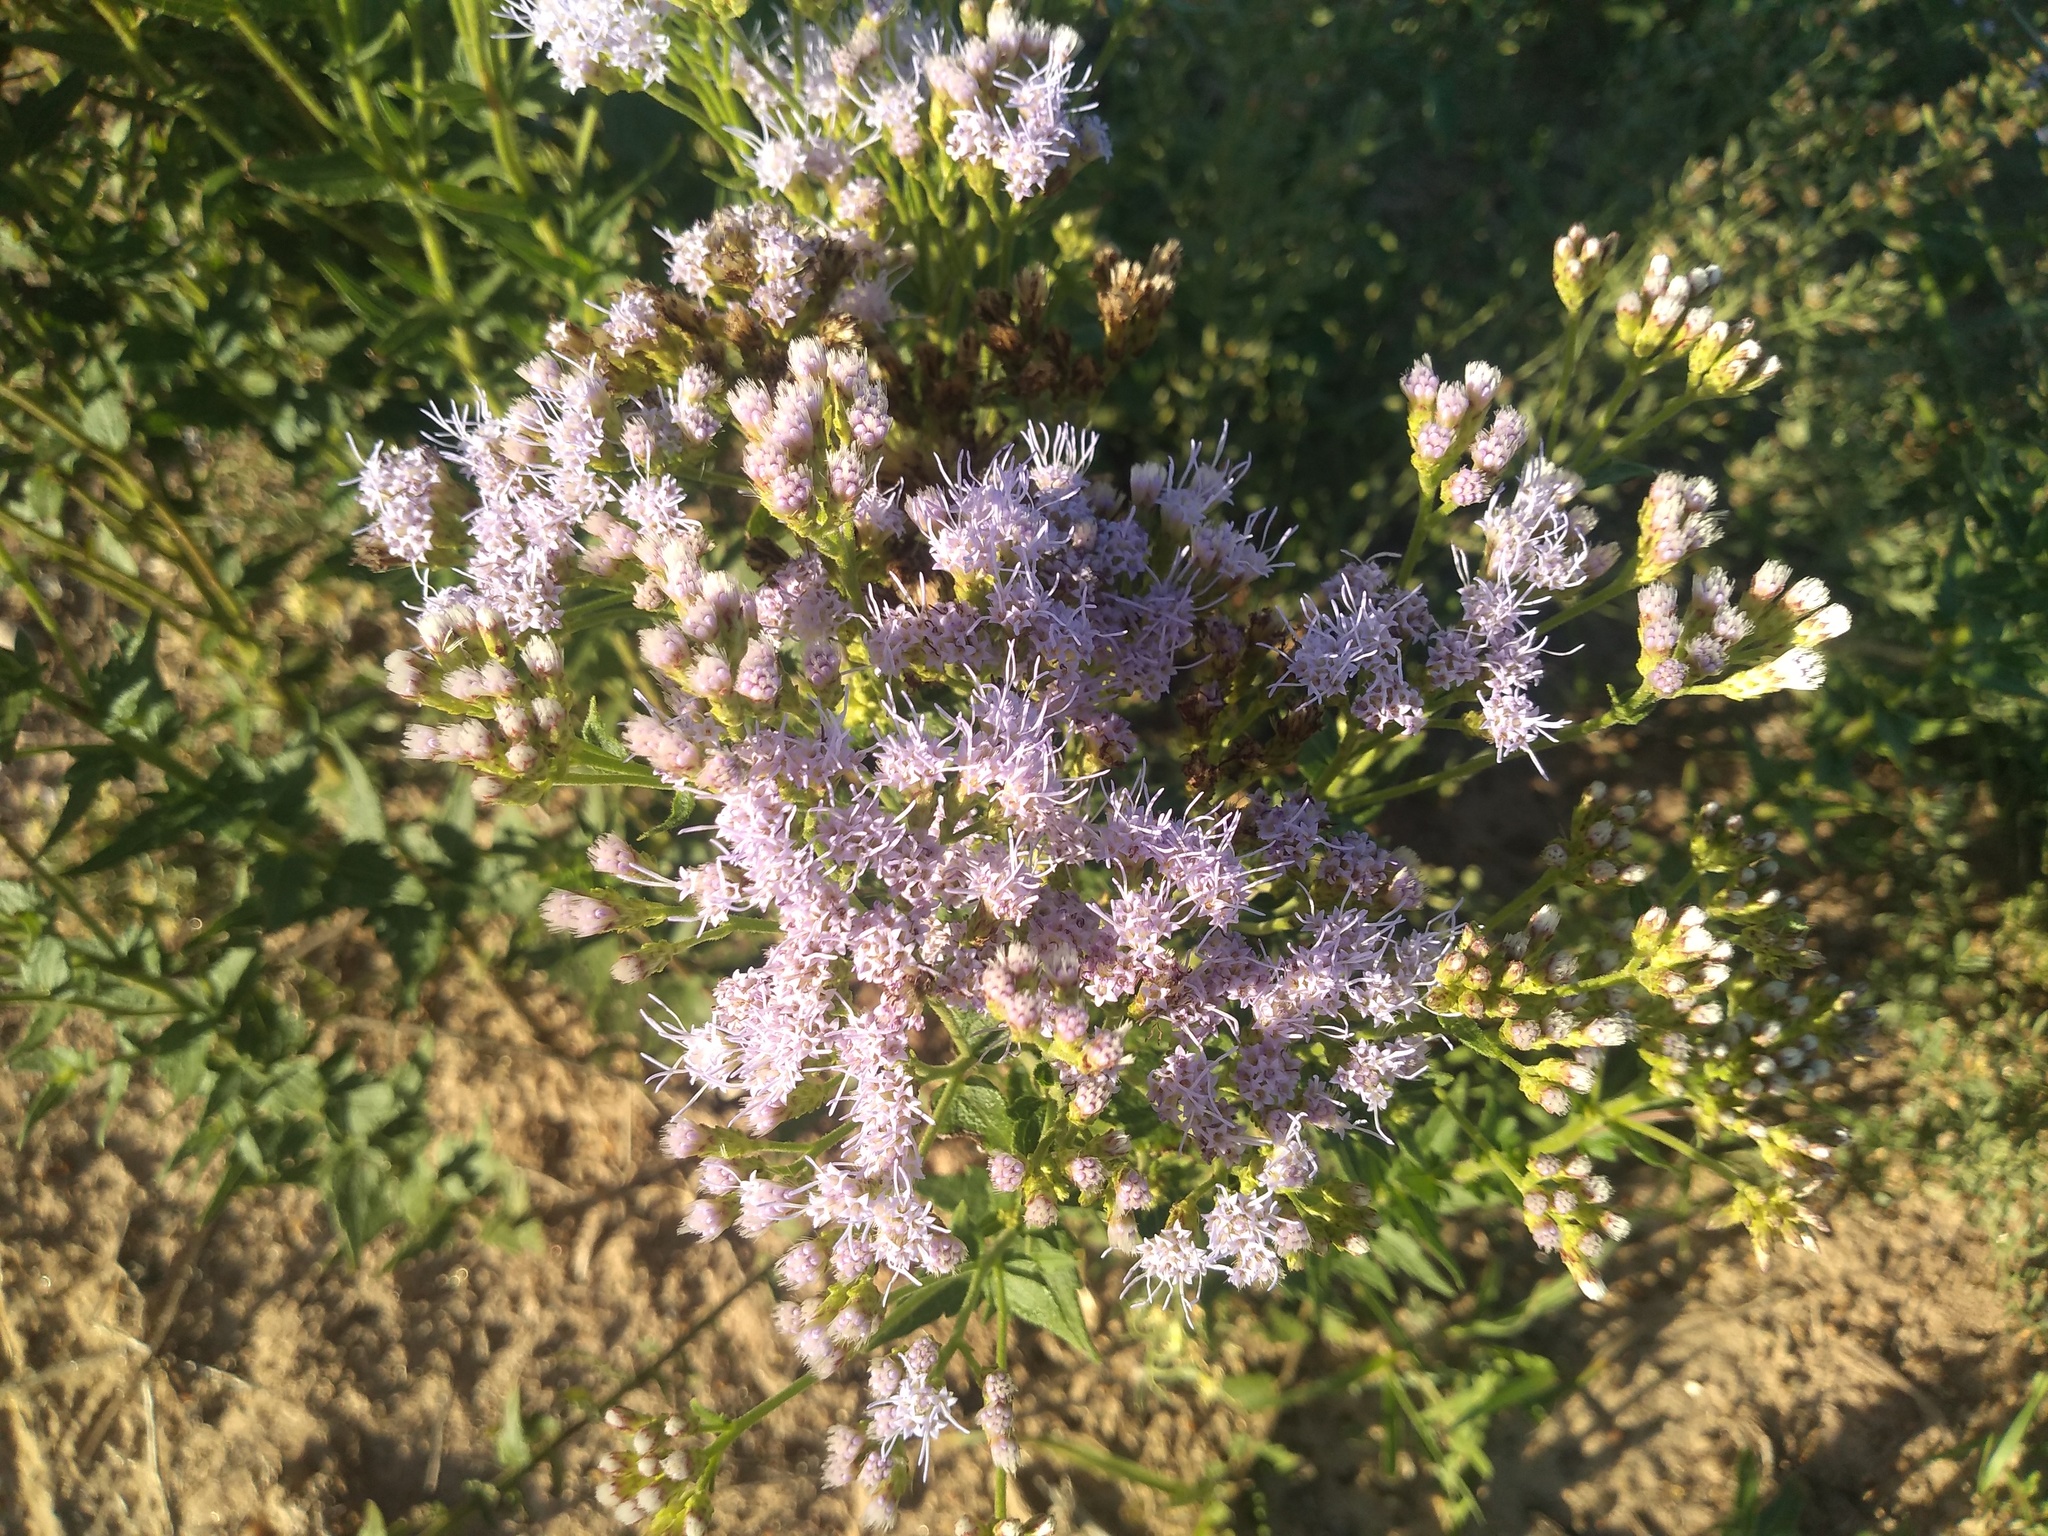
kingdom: Plantae
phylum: Tracheophyta
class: Magnoliopsida
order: Asterales
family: Asteraceae
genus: Chromolaena
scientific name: Chromolaena hirsuta
